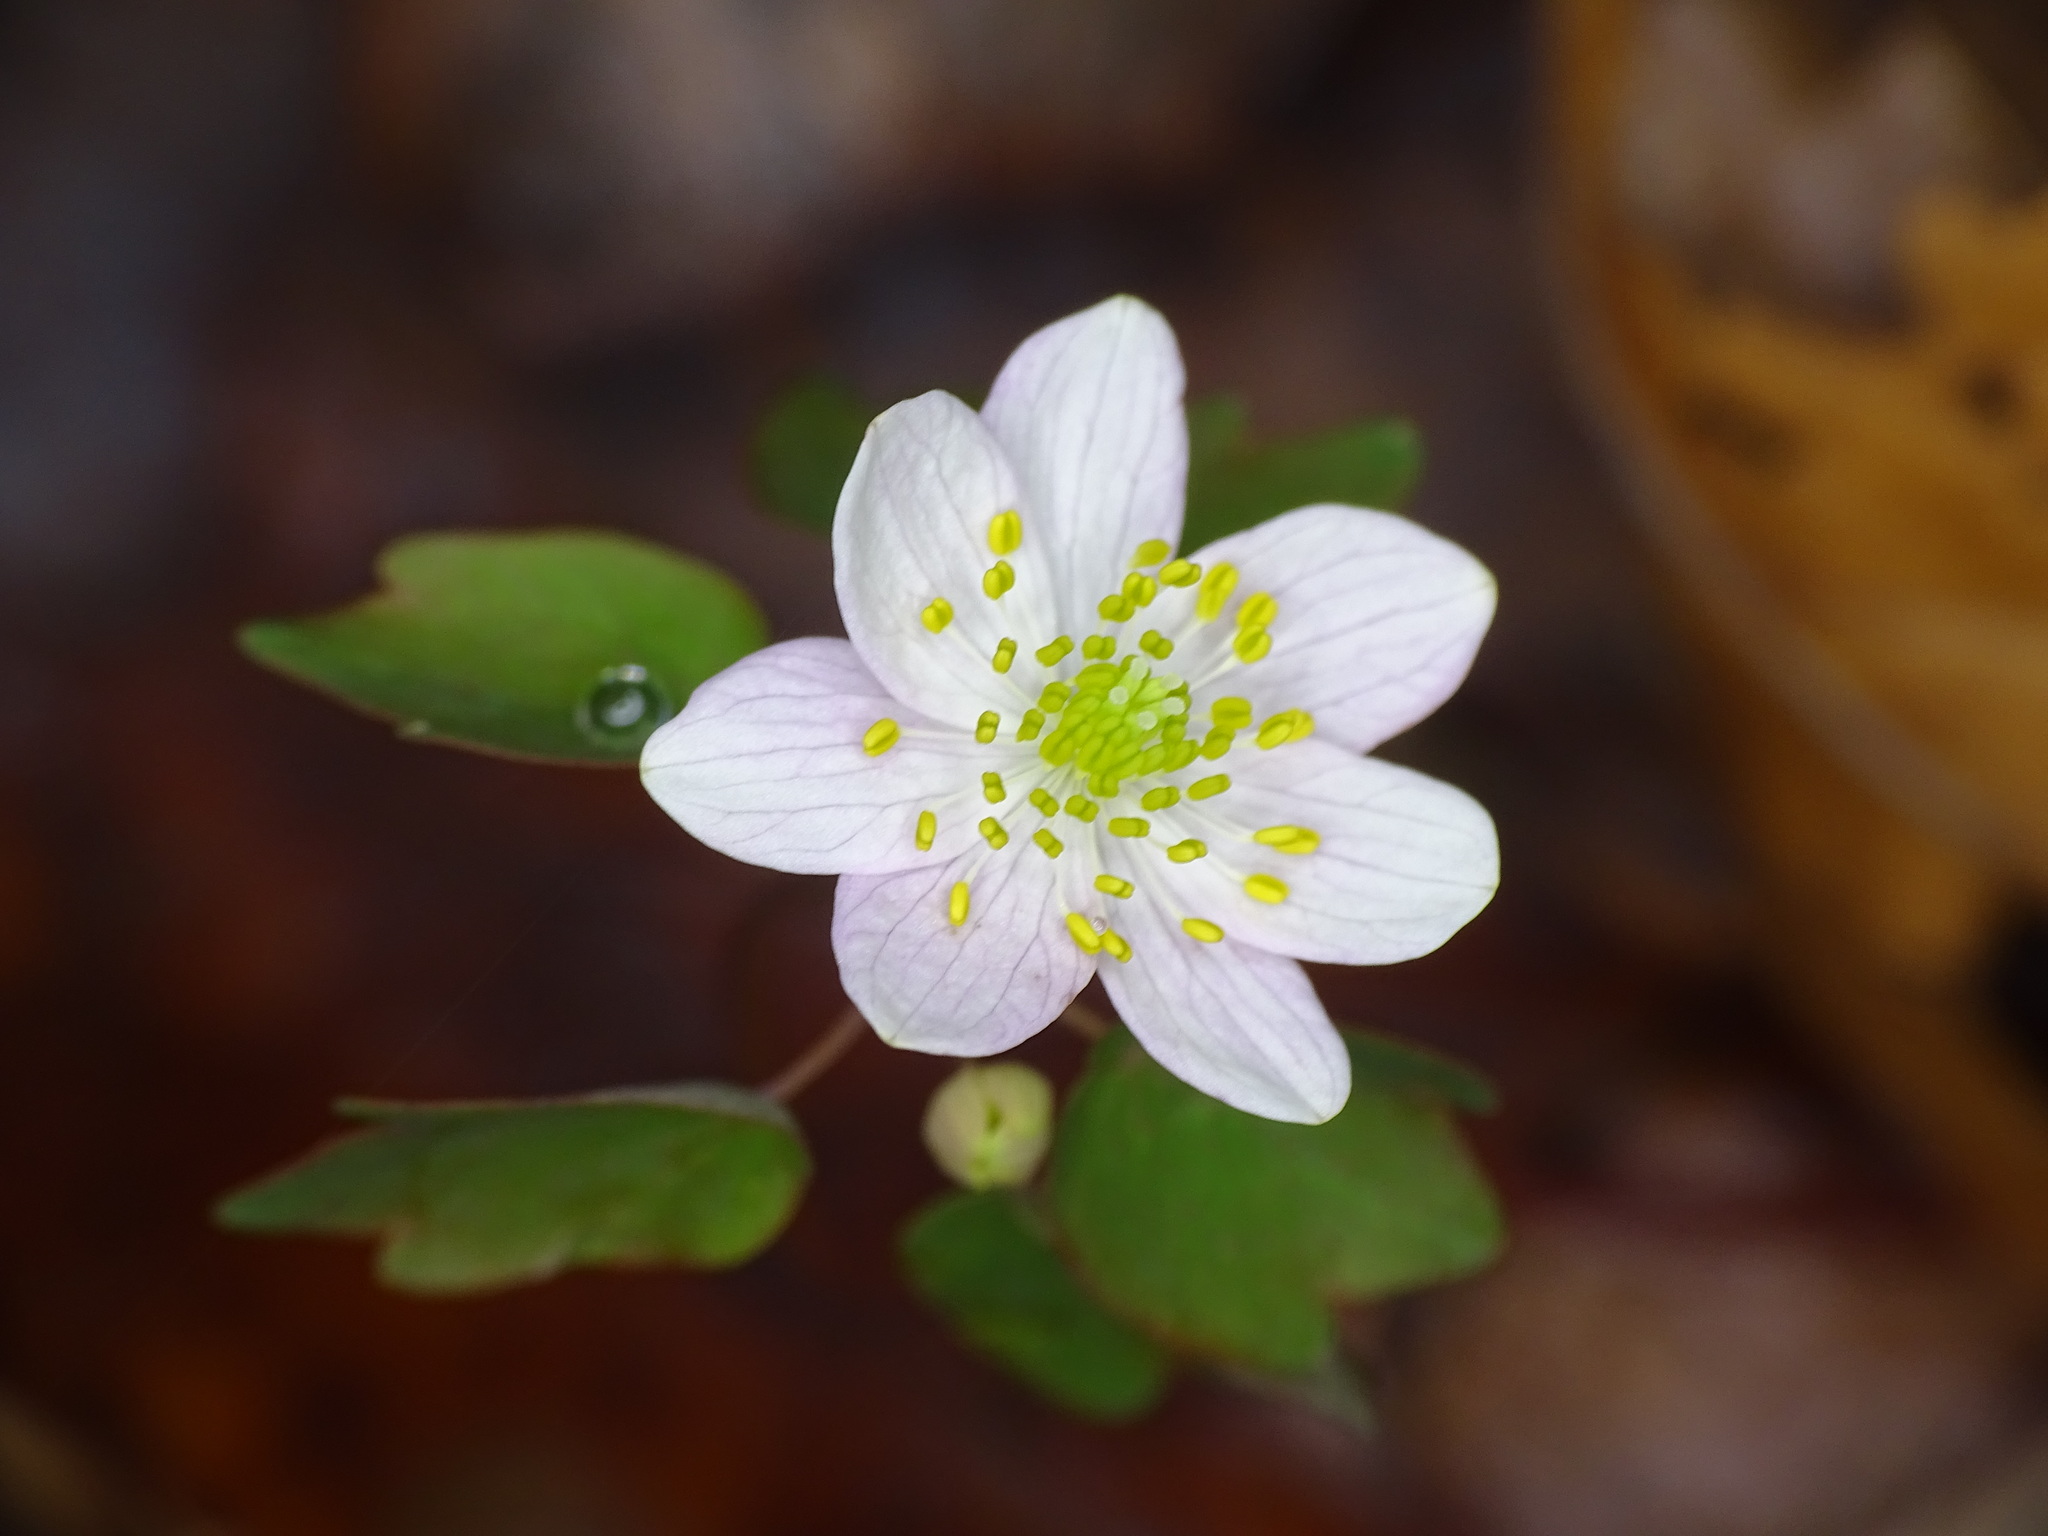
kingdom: Plantae
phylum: Tracheophyta
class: Magnoliopsida
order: Ranunculales
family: Ranunculaceae
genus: Thalictrum
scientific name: Thalictrum thalictroides
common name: Rue-anemone
